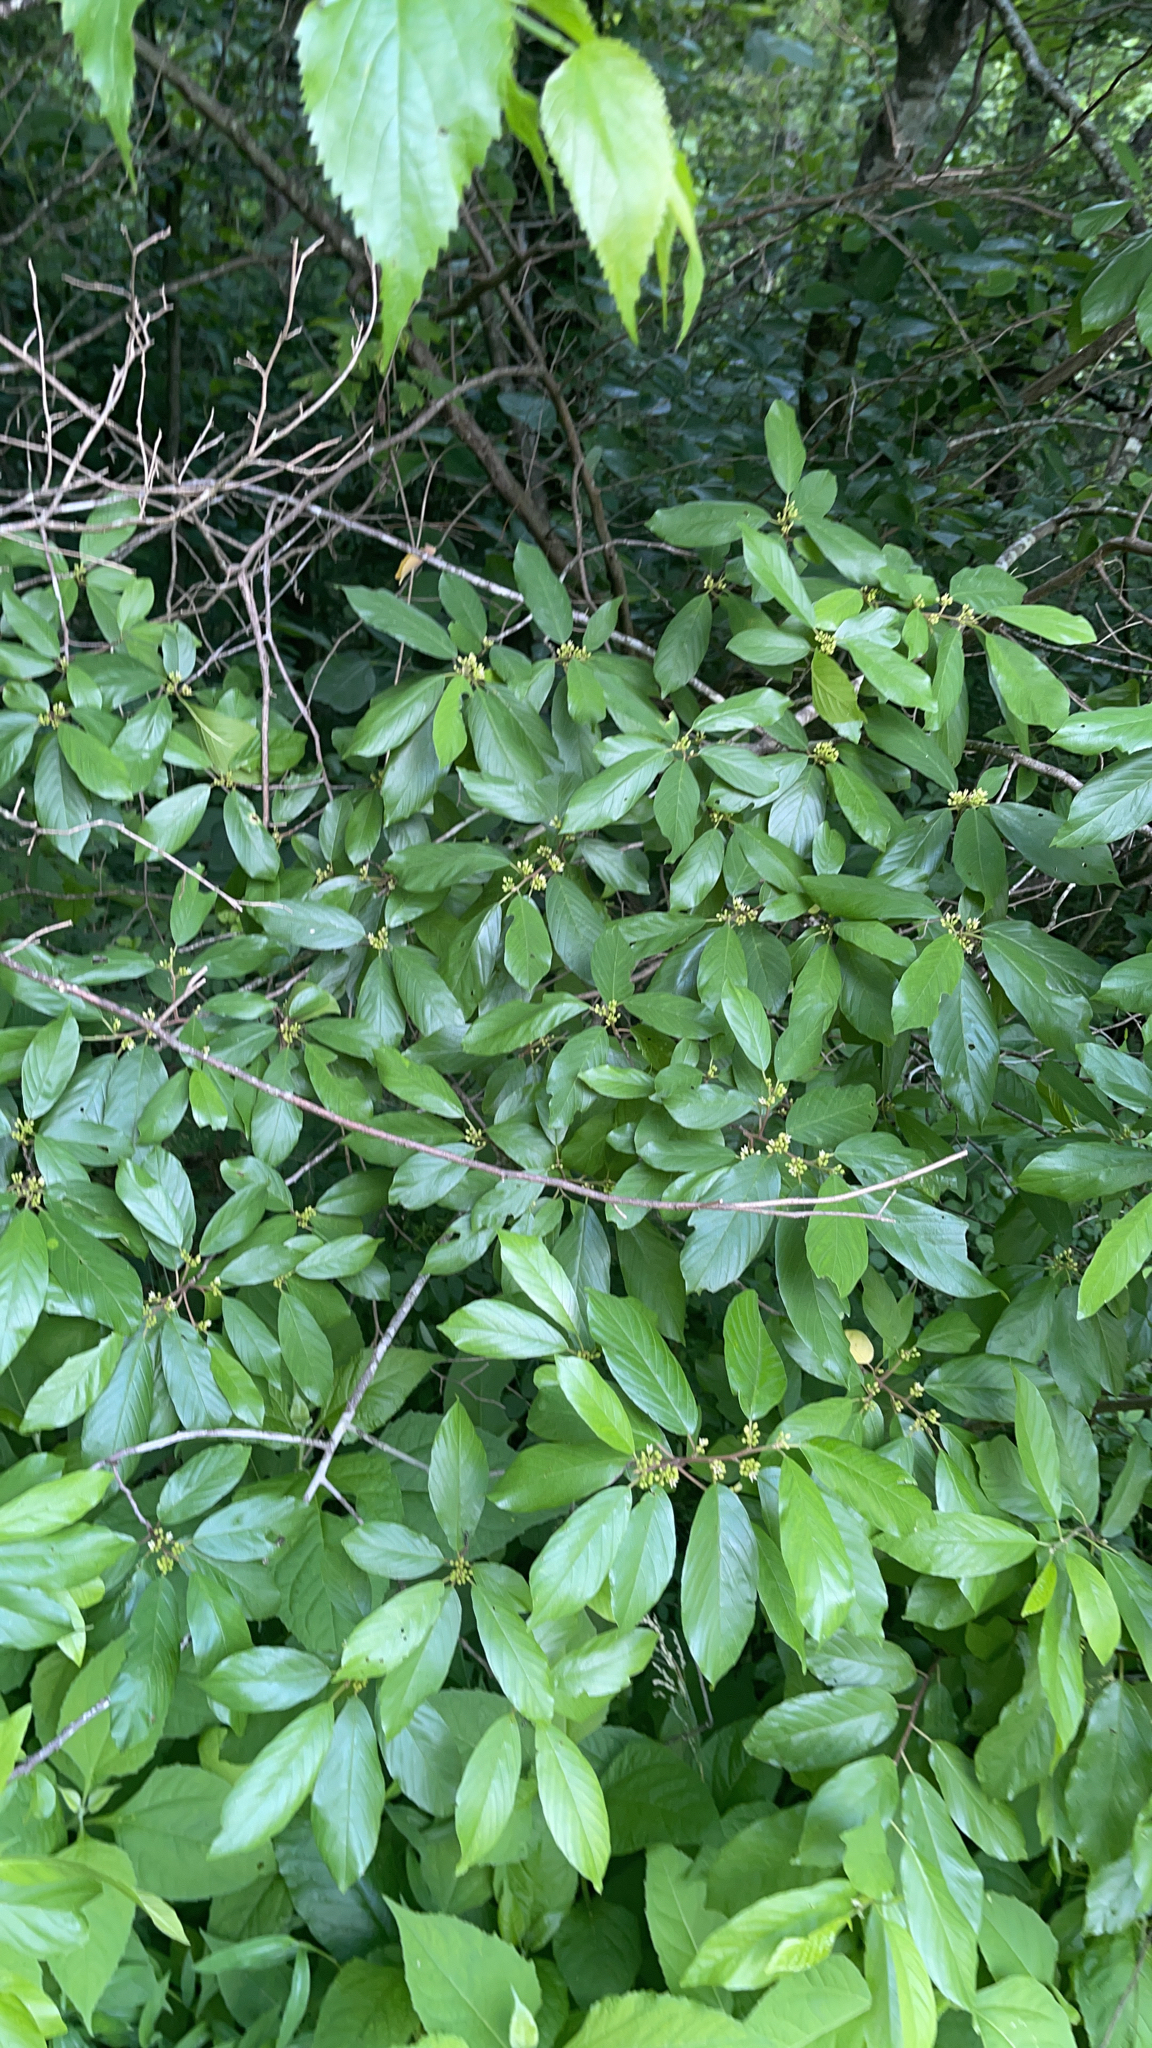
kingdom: Plantae
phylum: Tracheophyta
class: Magnoliopsida
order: Rosales
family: Rhamnaceae
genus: Frangula
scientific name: Frangula caroliniana
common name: Carolina buckthorn
